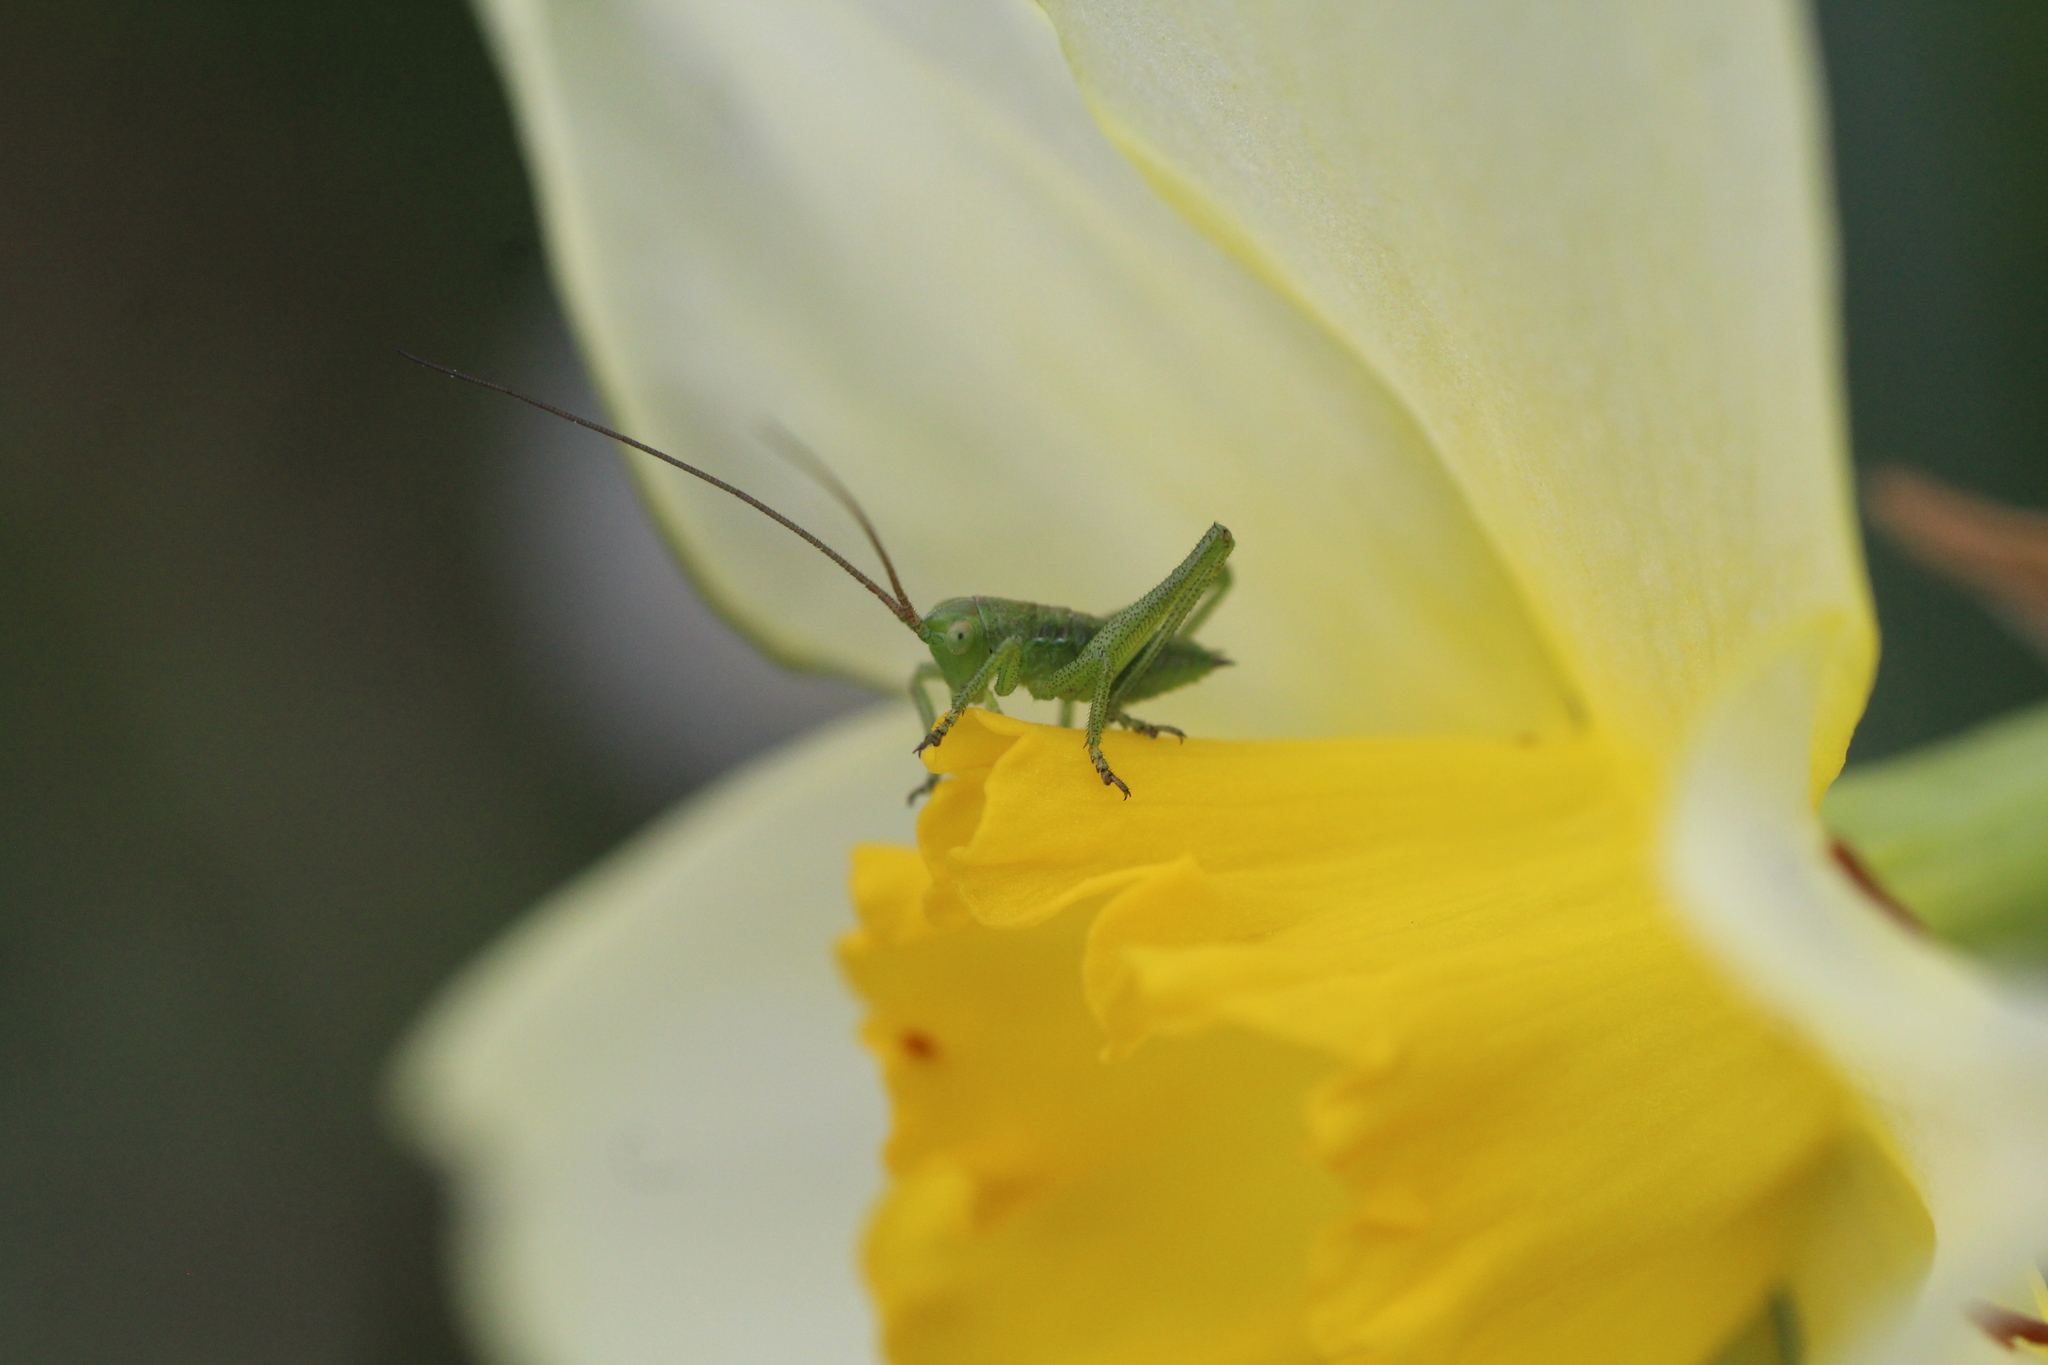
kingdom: Animalia
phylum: Arthropoda
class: Insecta
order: Orthoptera
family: Tettigoniidae
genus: Tettigonia
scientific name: Tettigonia viridissima
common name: Great green bush-cricket
